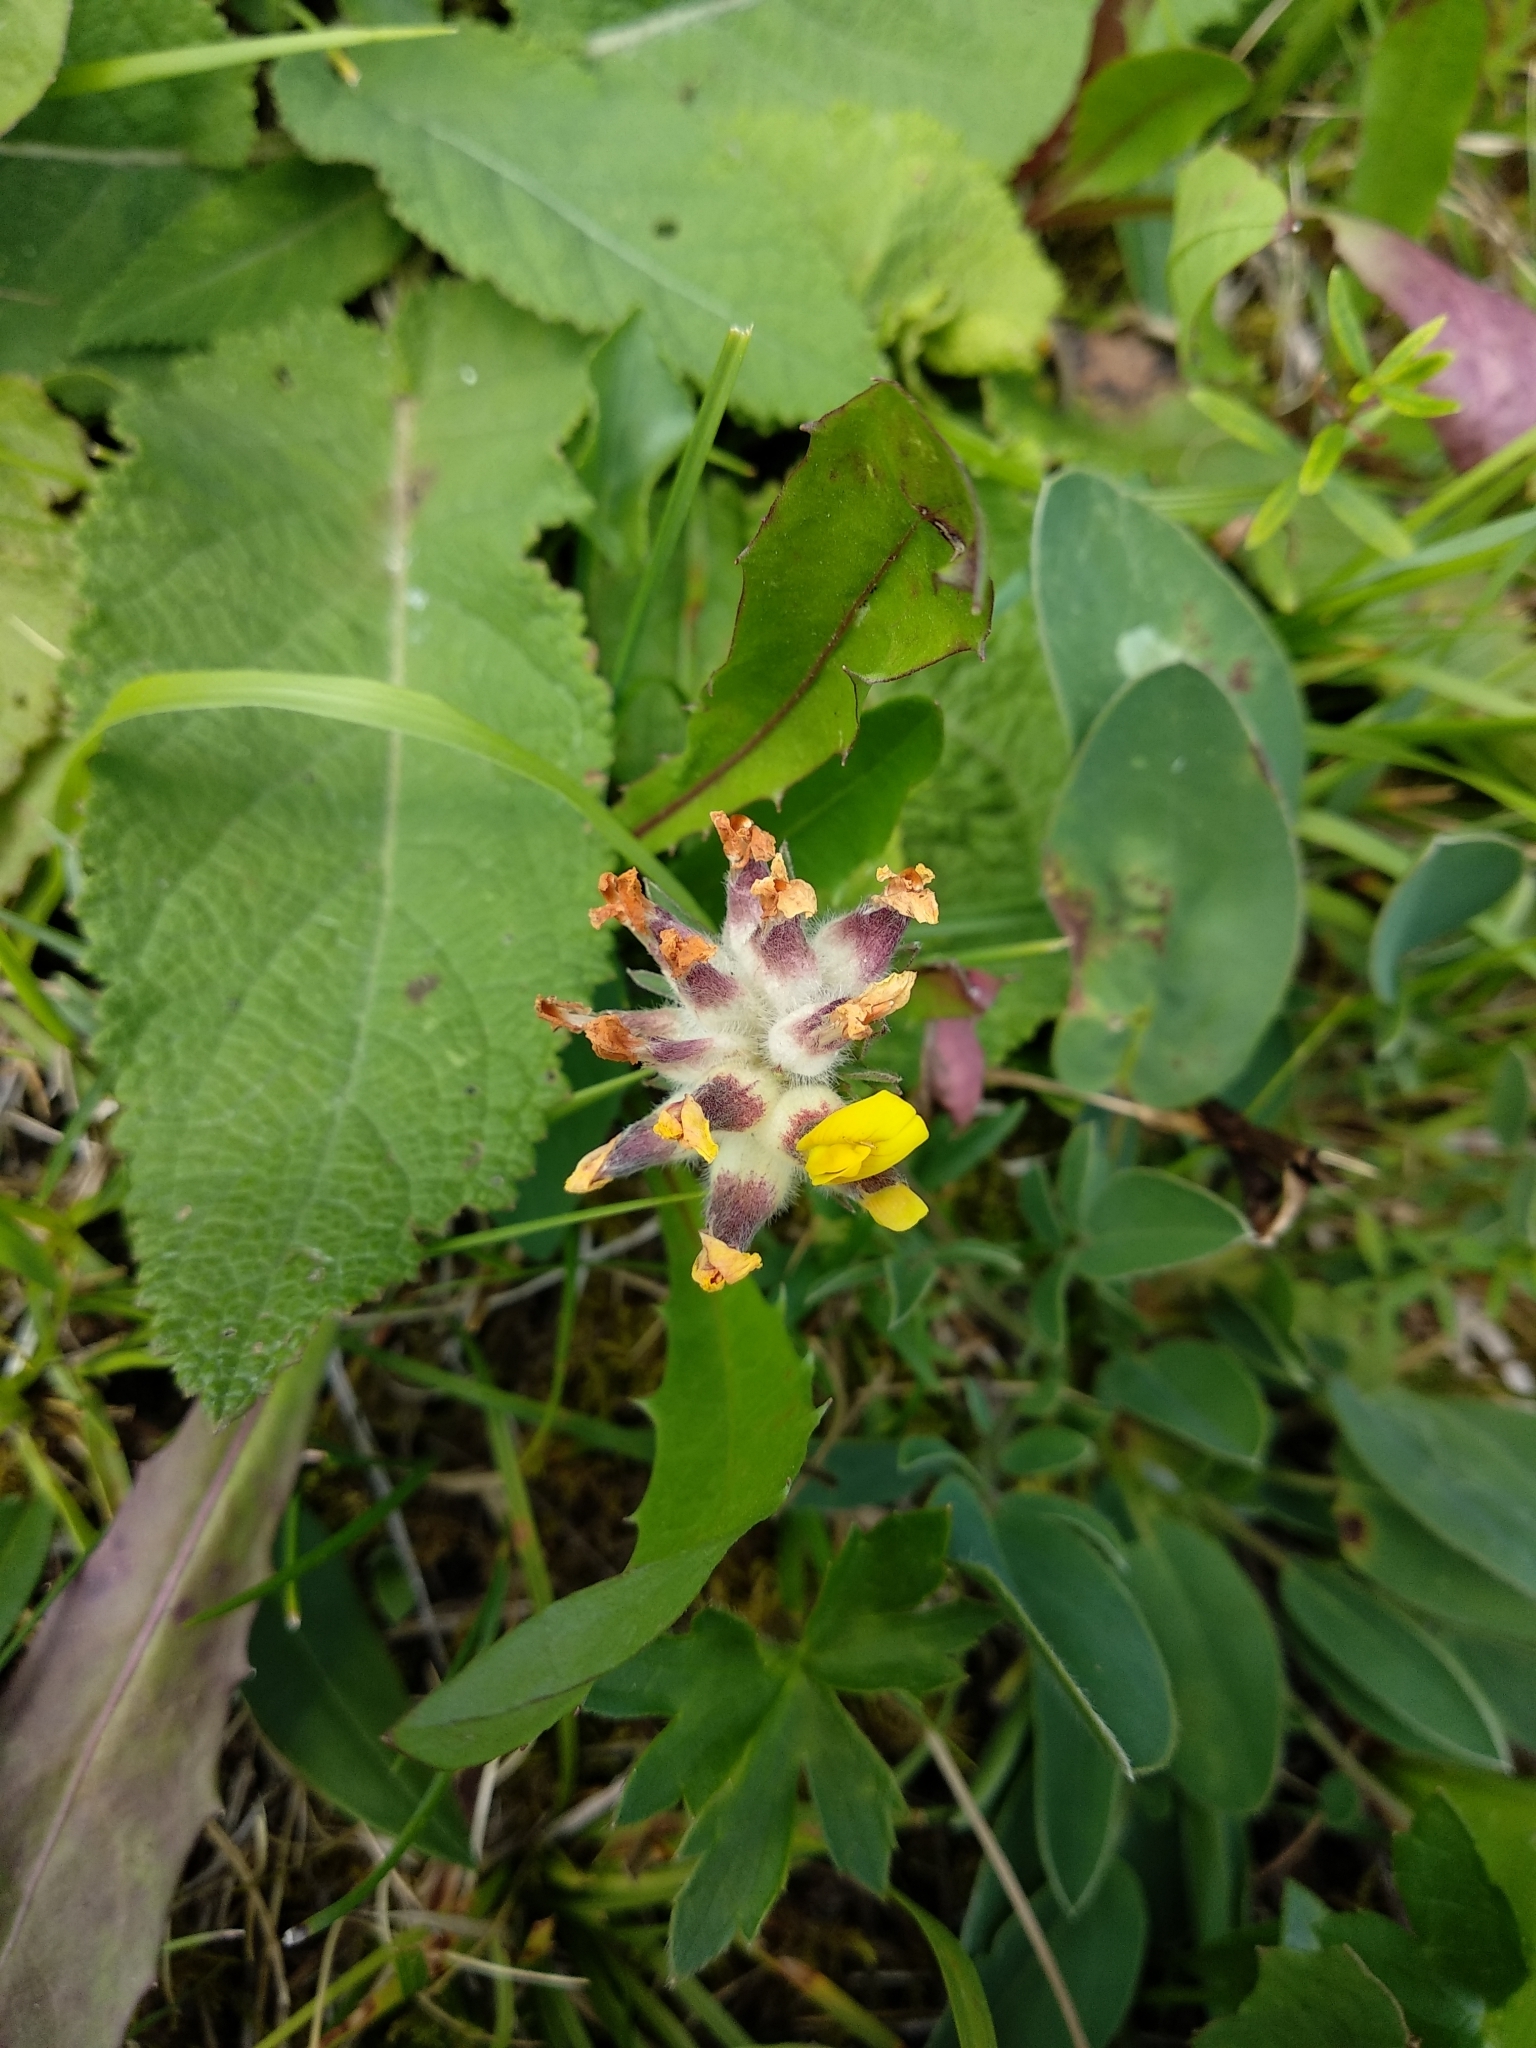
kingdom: Plantae
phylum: Tracheophyta
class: Magnoliopsida
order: Fabales
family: Fabaceae
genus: Anthyllis
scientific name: Anthyllis vulneraria
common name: Kidney vetch
